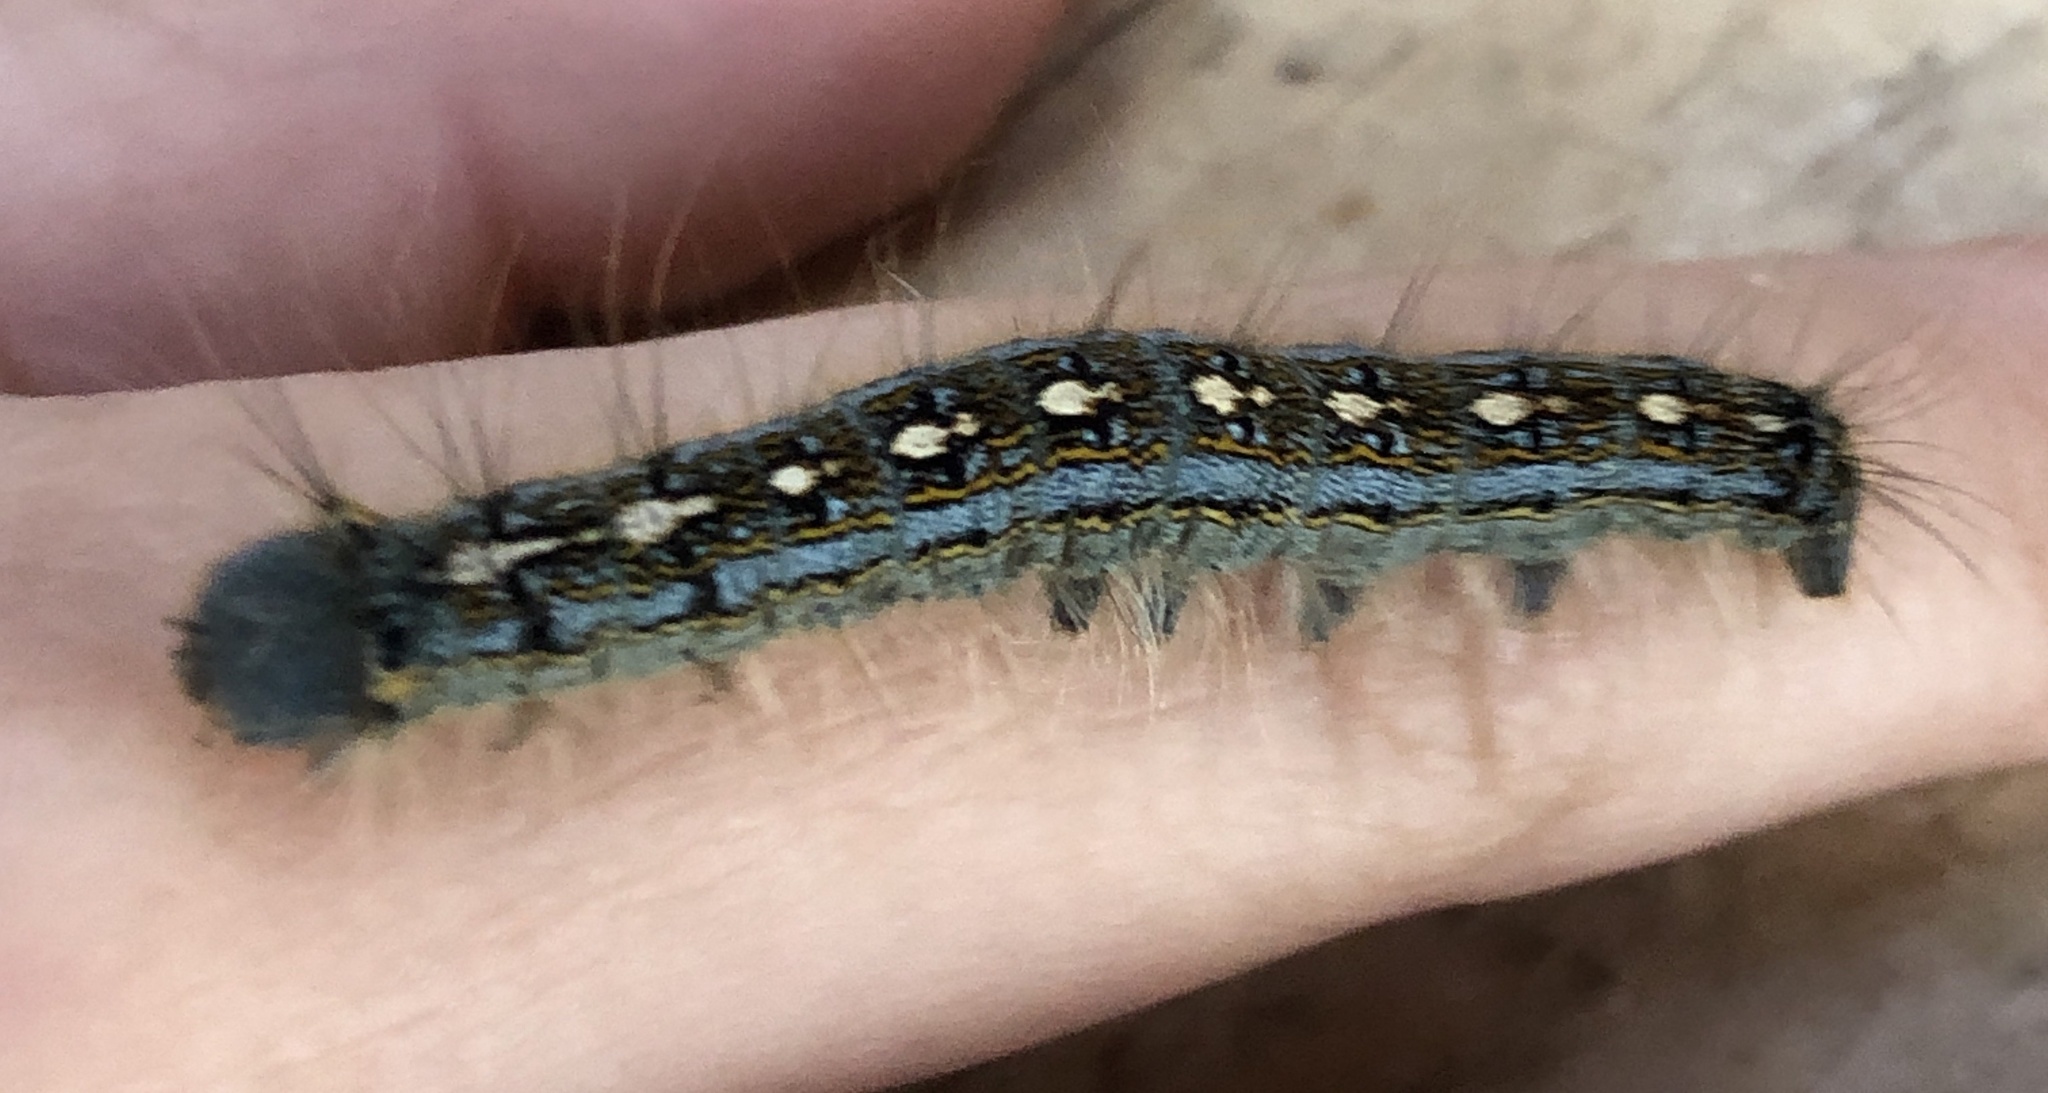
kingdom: Animalia
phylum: Arthropoda
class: Insecta
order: Lepidoptera
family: Lasiocampidae
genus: Malacosoma
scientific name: Malacosoma disstria
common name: Forest tent caterpillar
